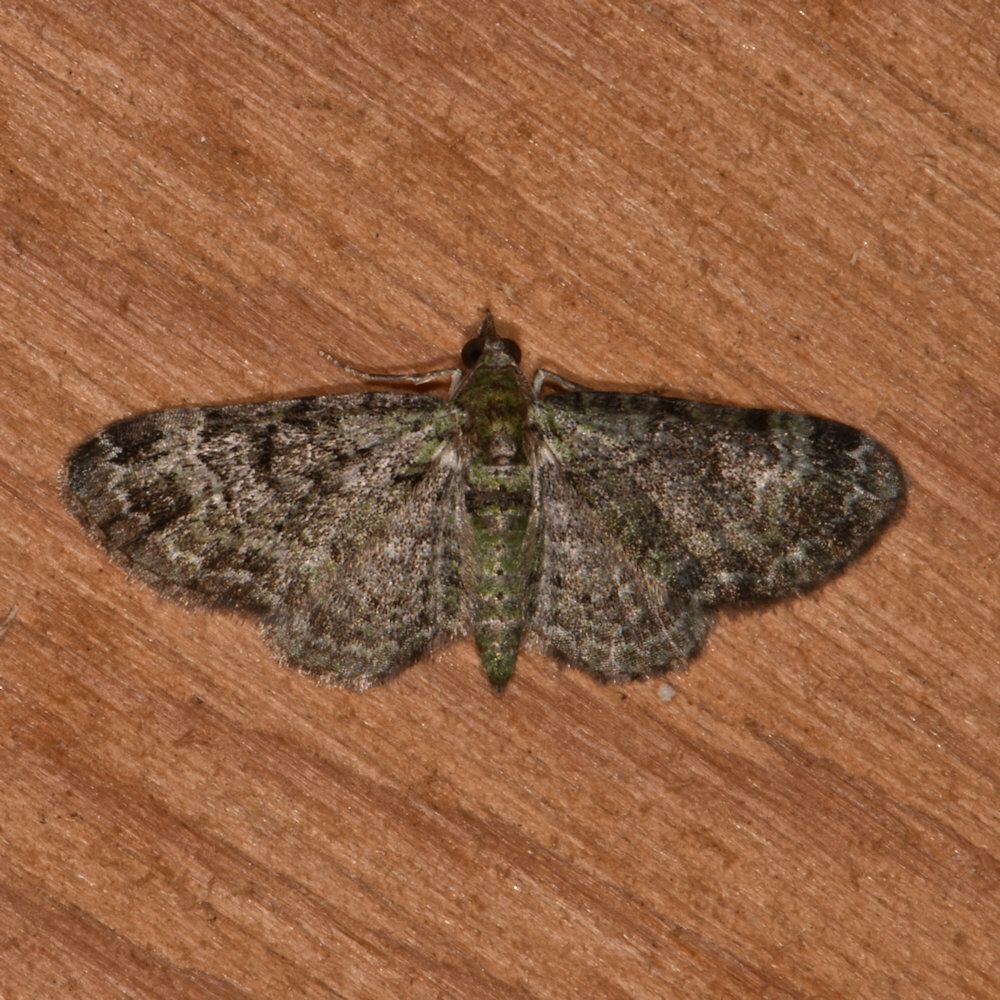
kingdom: Animalia
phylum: Arthropoda
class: Insecta
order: Lepidoptera
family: Geometridae
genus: Pasiphila
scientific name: Pasiphila rectangulata
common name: Green pug
